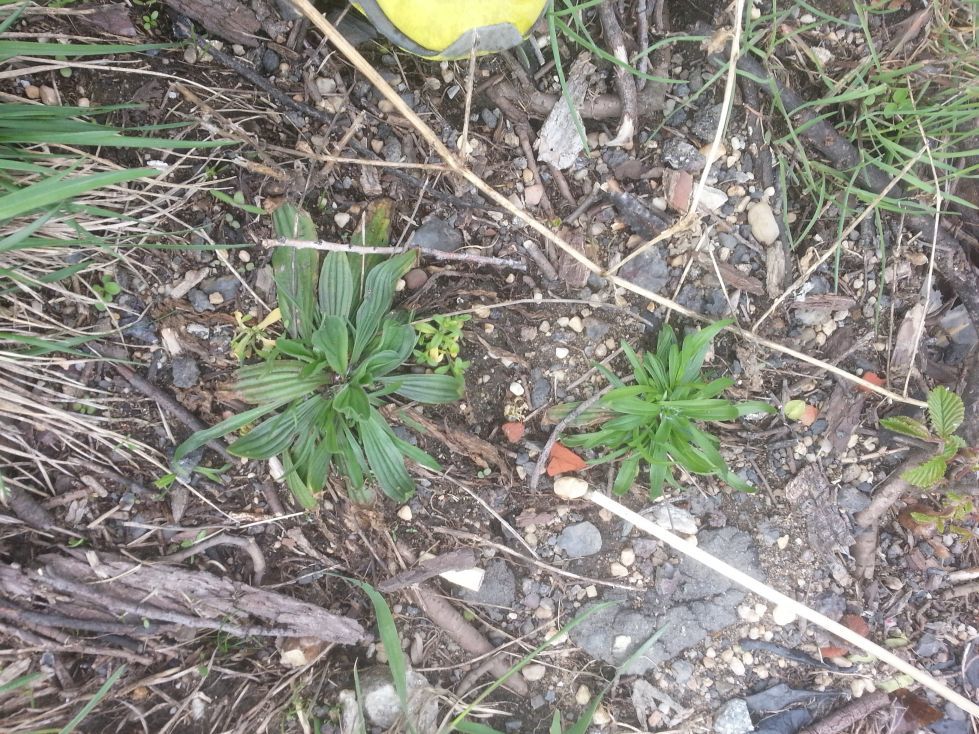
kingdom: Plantae
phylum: Tracheophyta
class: Magnoliopsida
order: Lamiales
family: Plantaginaceae
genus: Plantago
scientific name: Plantago lanceolata
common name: Ribwort plantain
